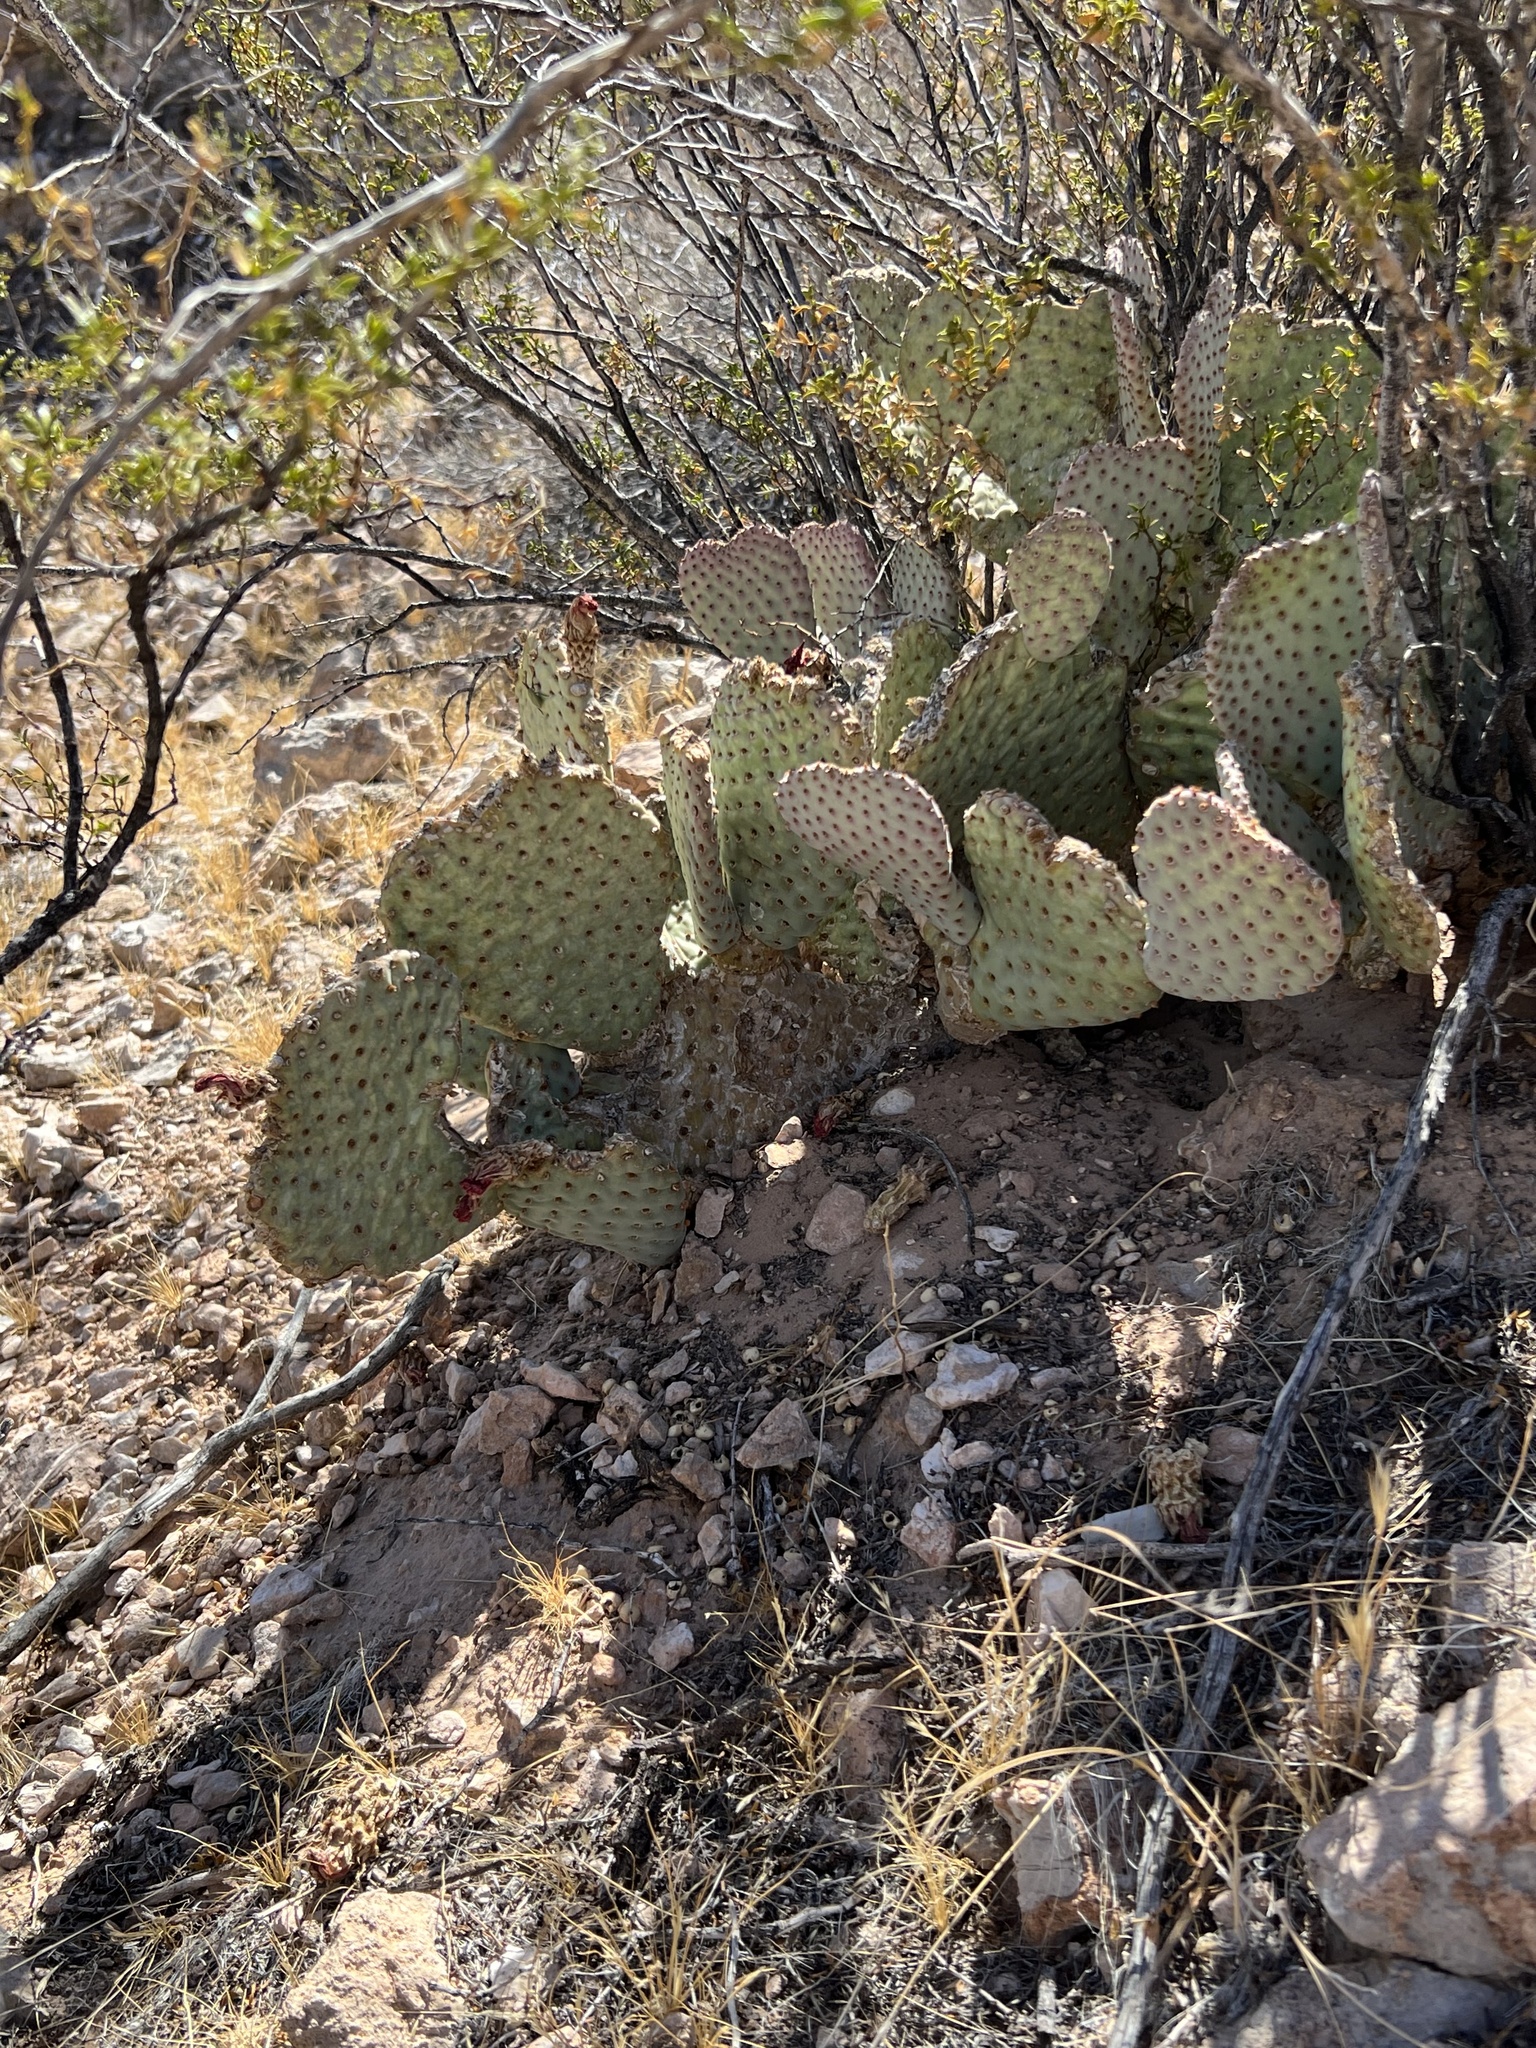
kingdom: Plantae
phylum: Tracheophyta
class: Magnoliopsida
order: Caryophyllales
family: Cactaceae
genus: Opuntia
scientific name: Opuntia basilaris
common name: Beavertail prickly-pear
